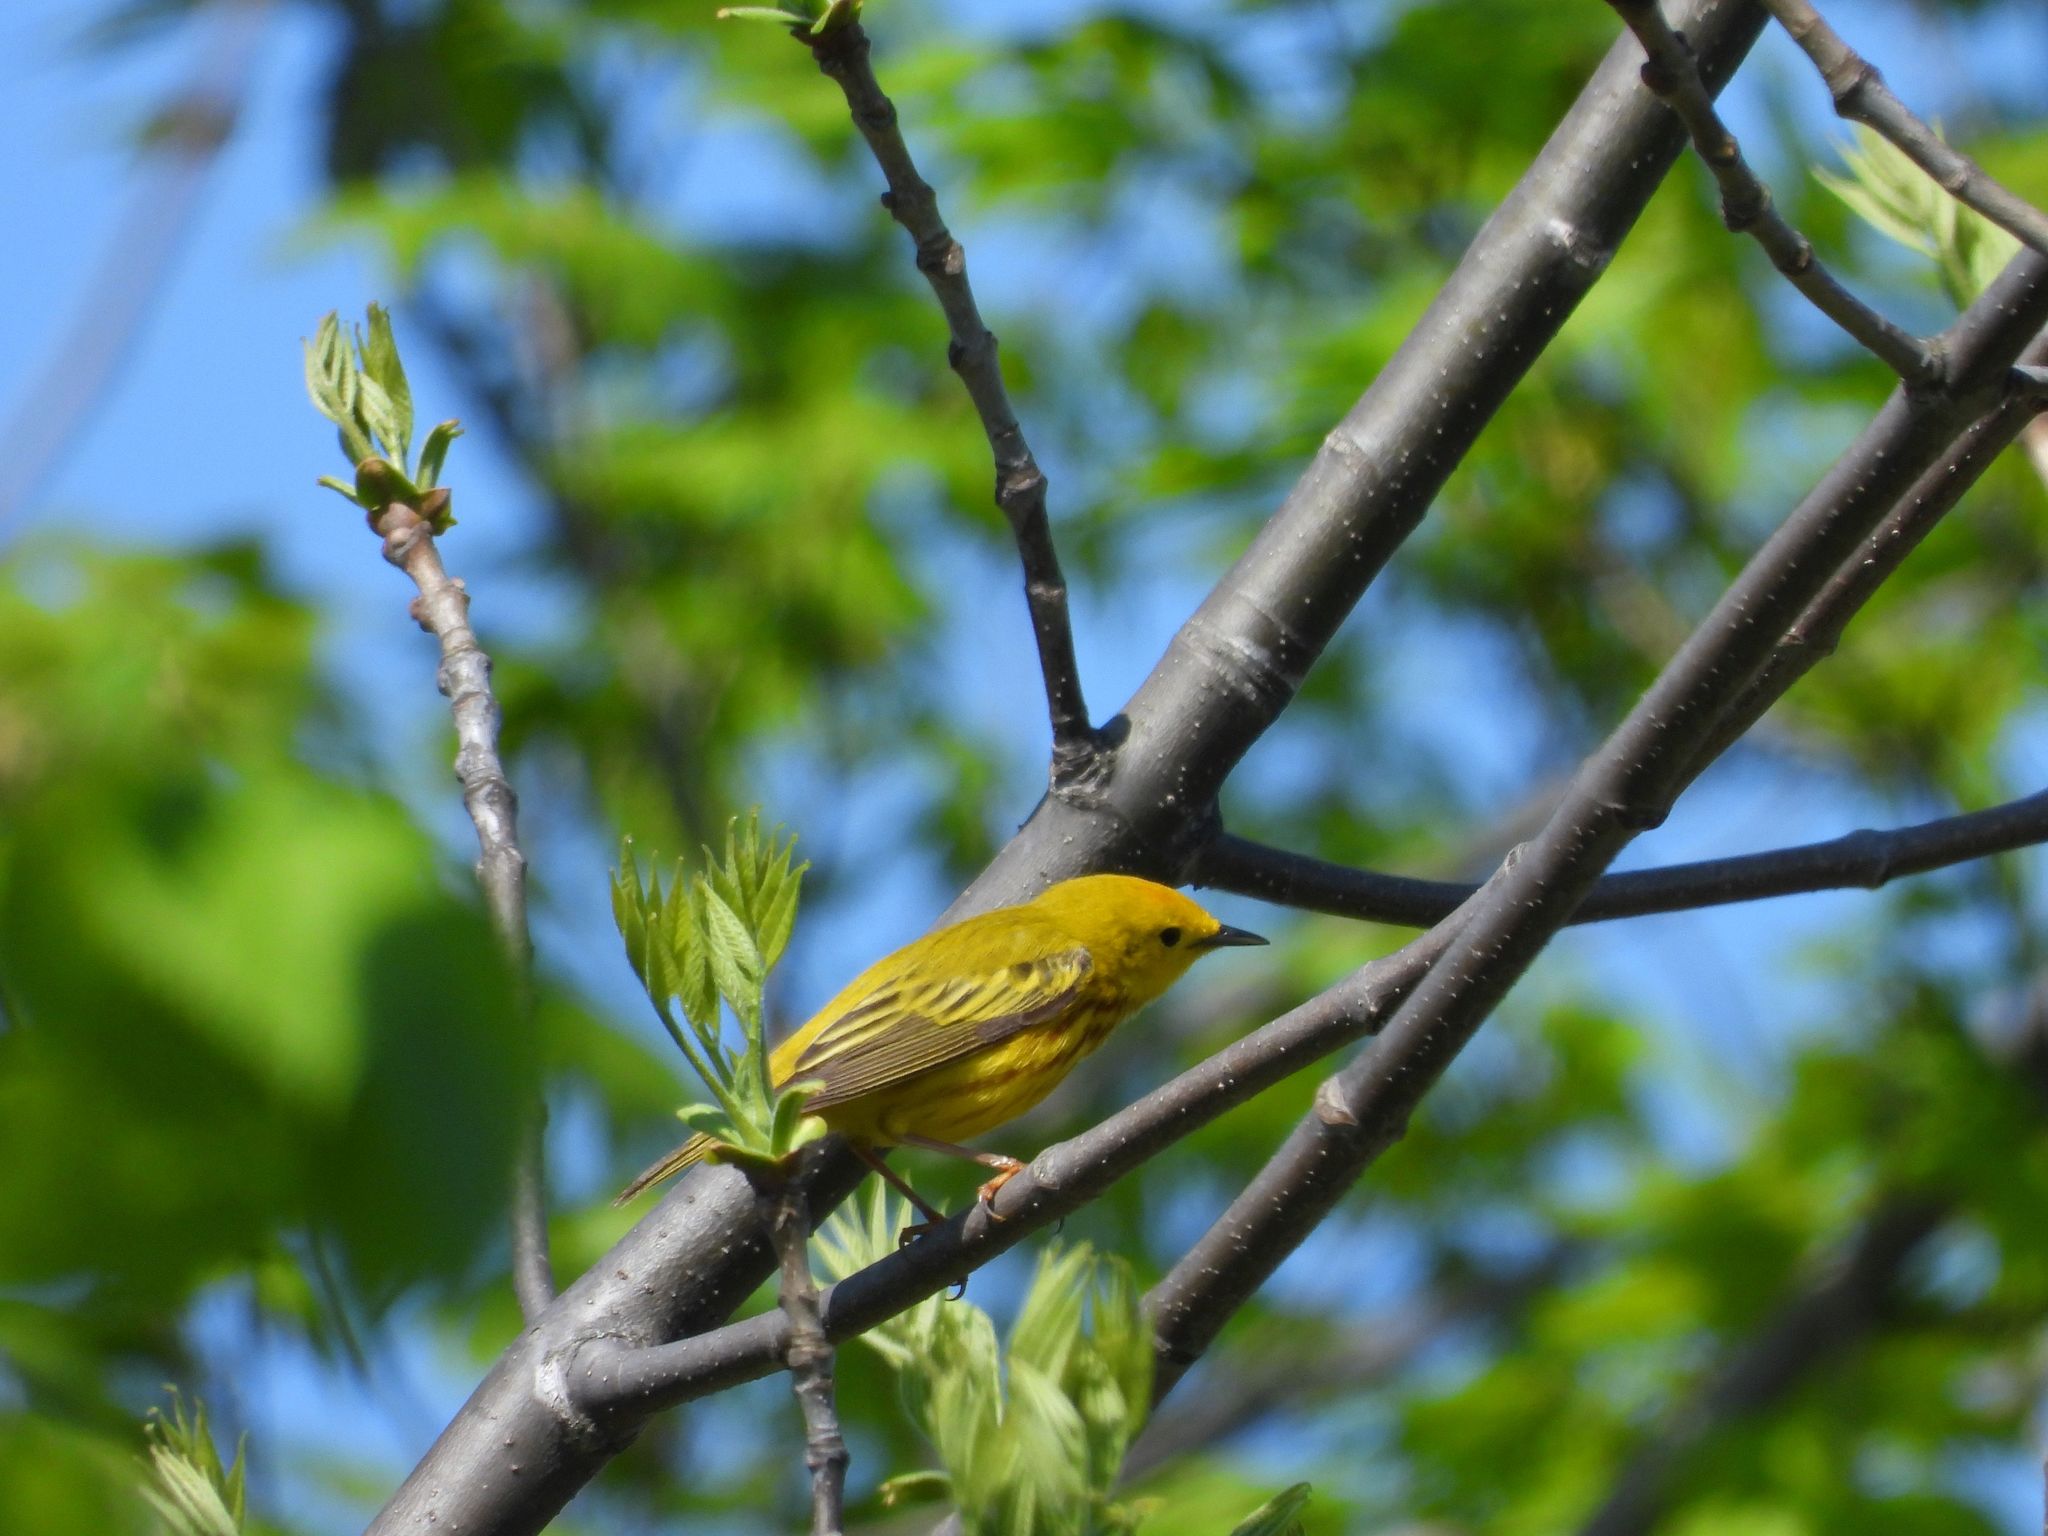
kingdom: Animalia
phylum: Chordata
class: Aves
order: Passeriformes
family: Parulidae
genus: Setophaga
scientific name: Setophaga petechia
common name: Yellow warbler
